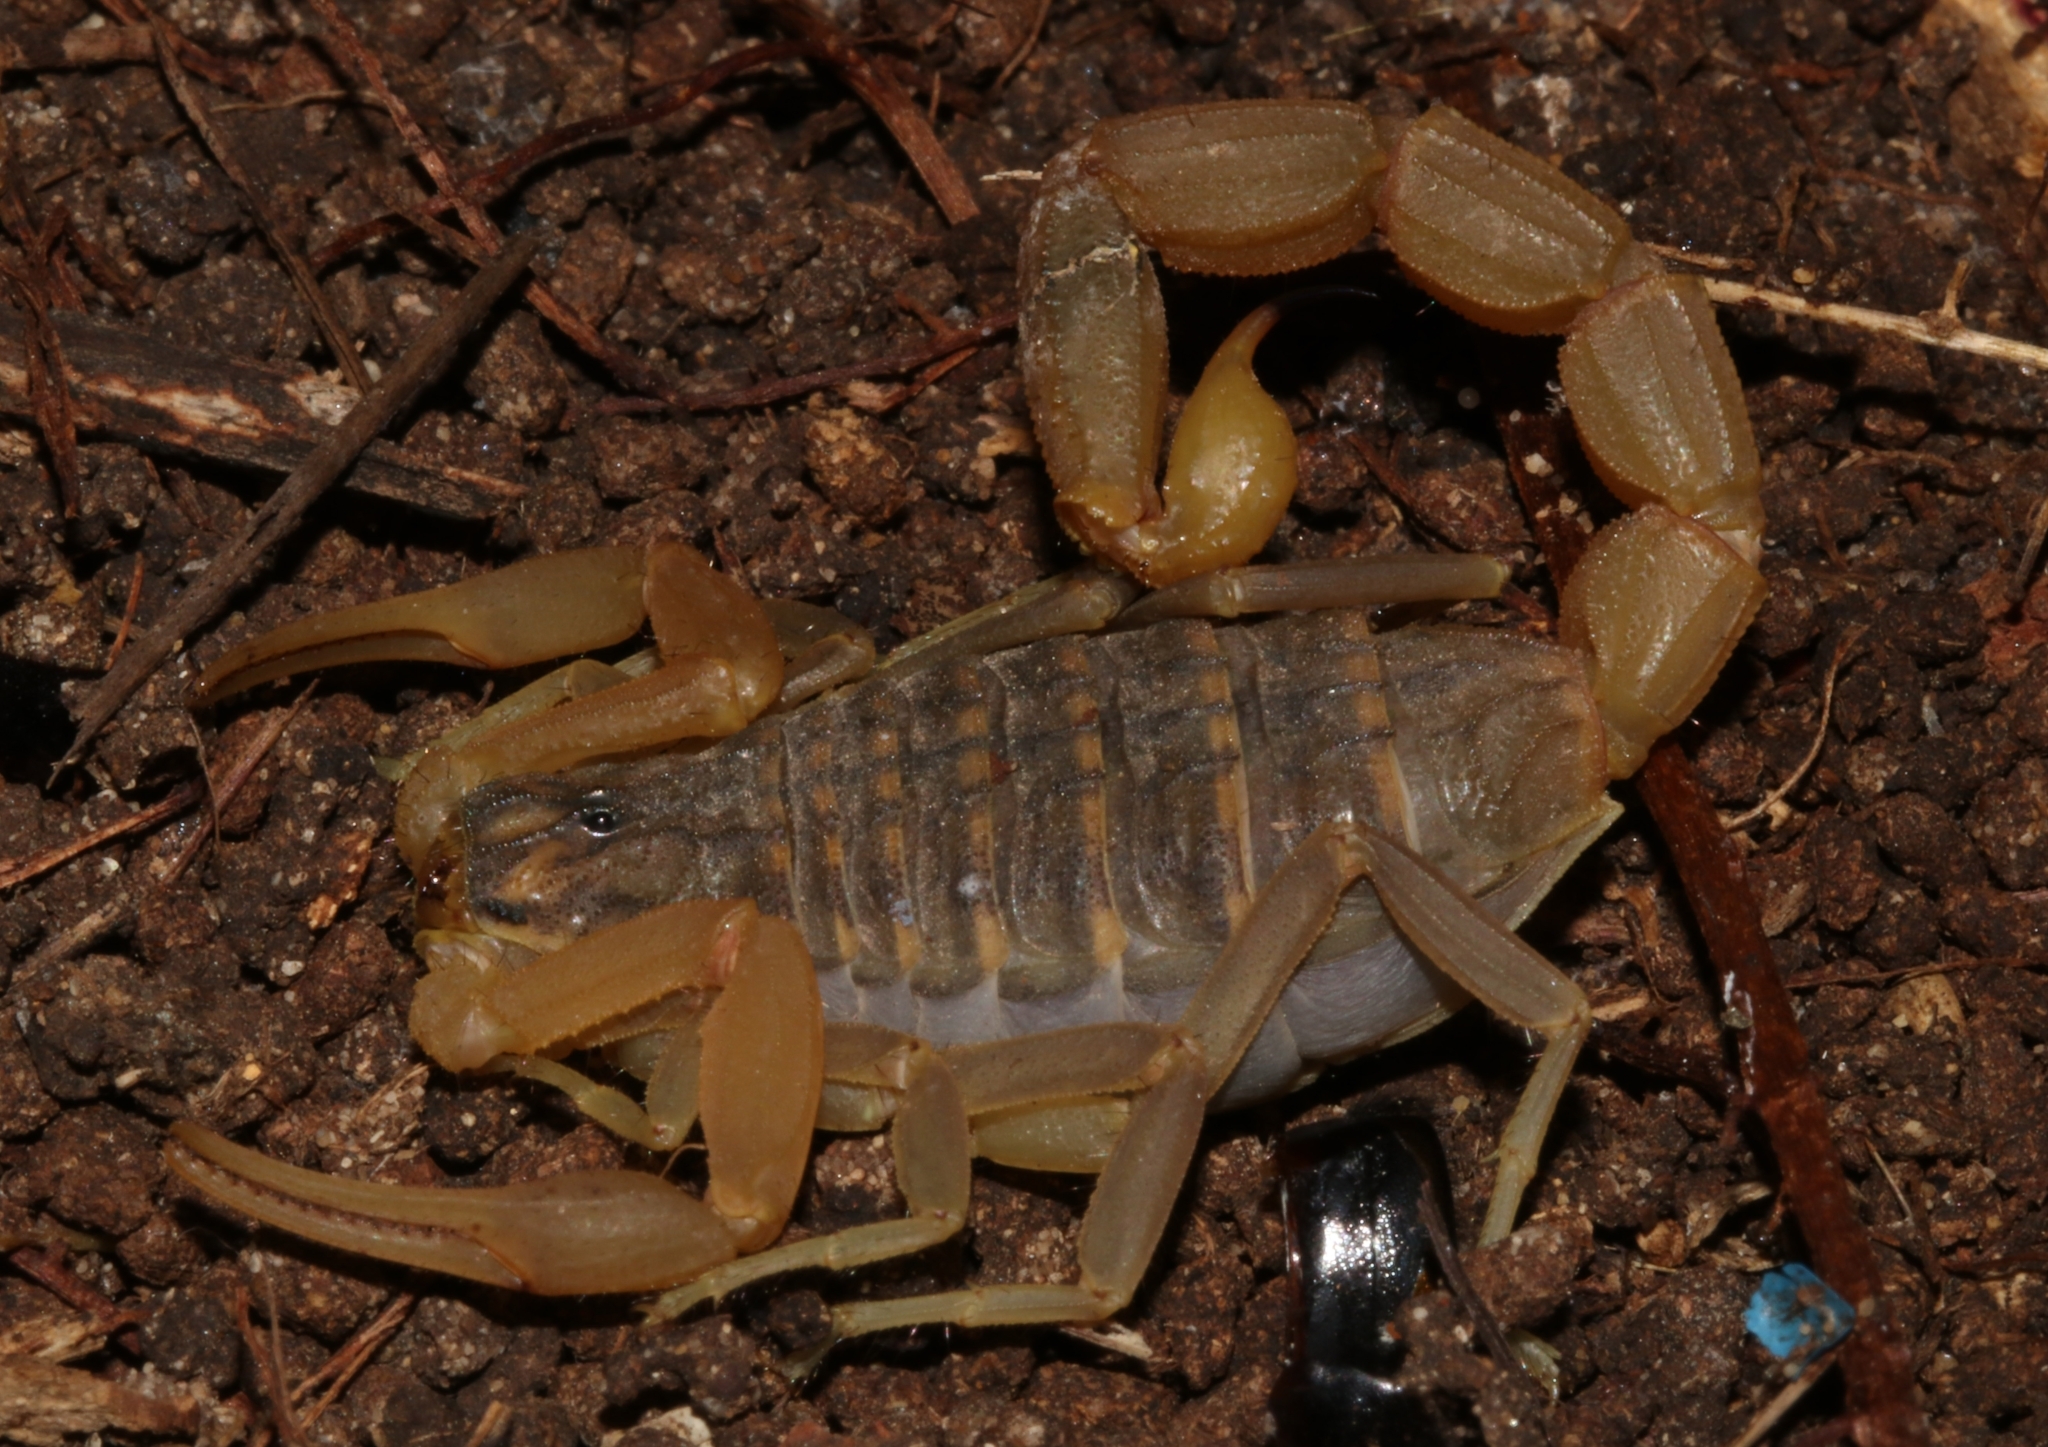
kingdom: Animalia
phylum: Arthropoda
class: Arachnida
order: Scorpiones
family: Buthidae
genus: Aegaeobuthus
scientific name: Aegaeobuthus gibbosus
